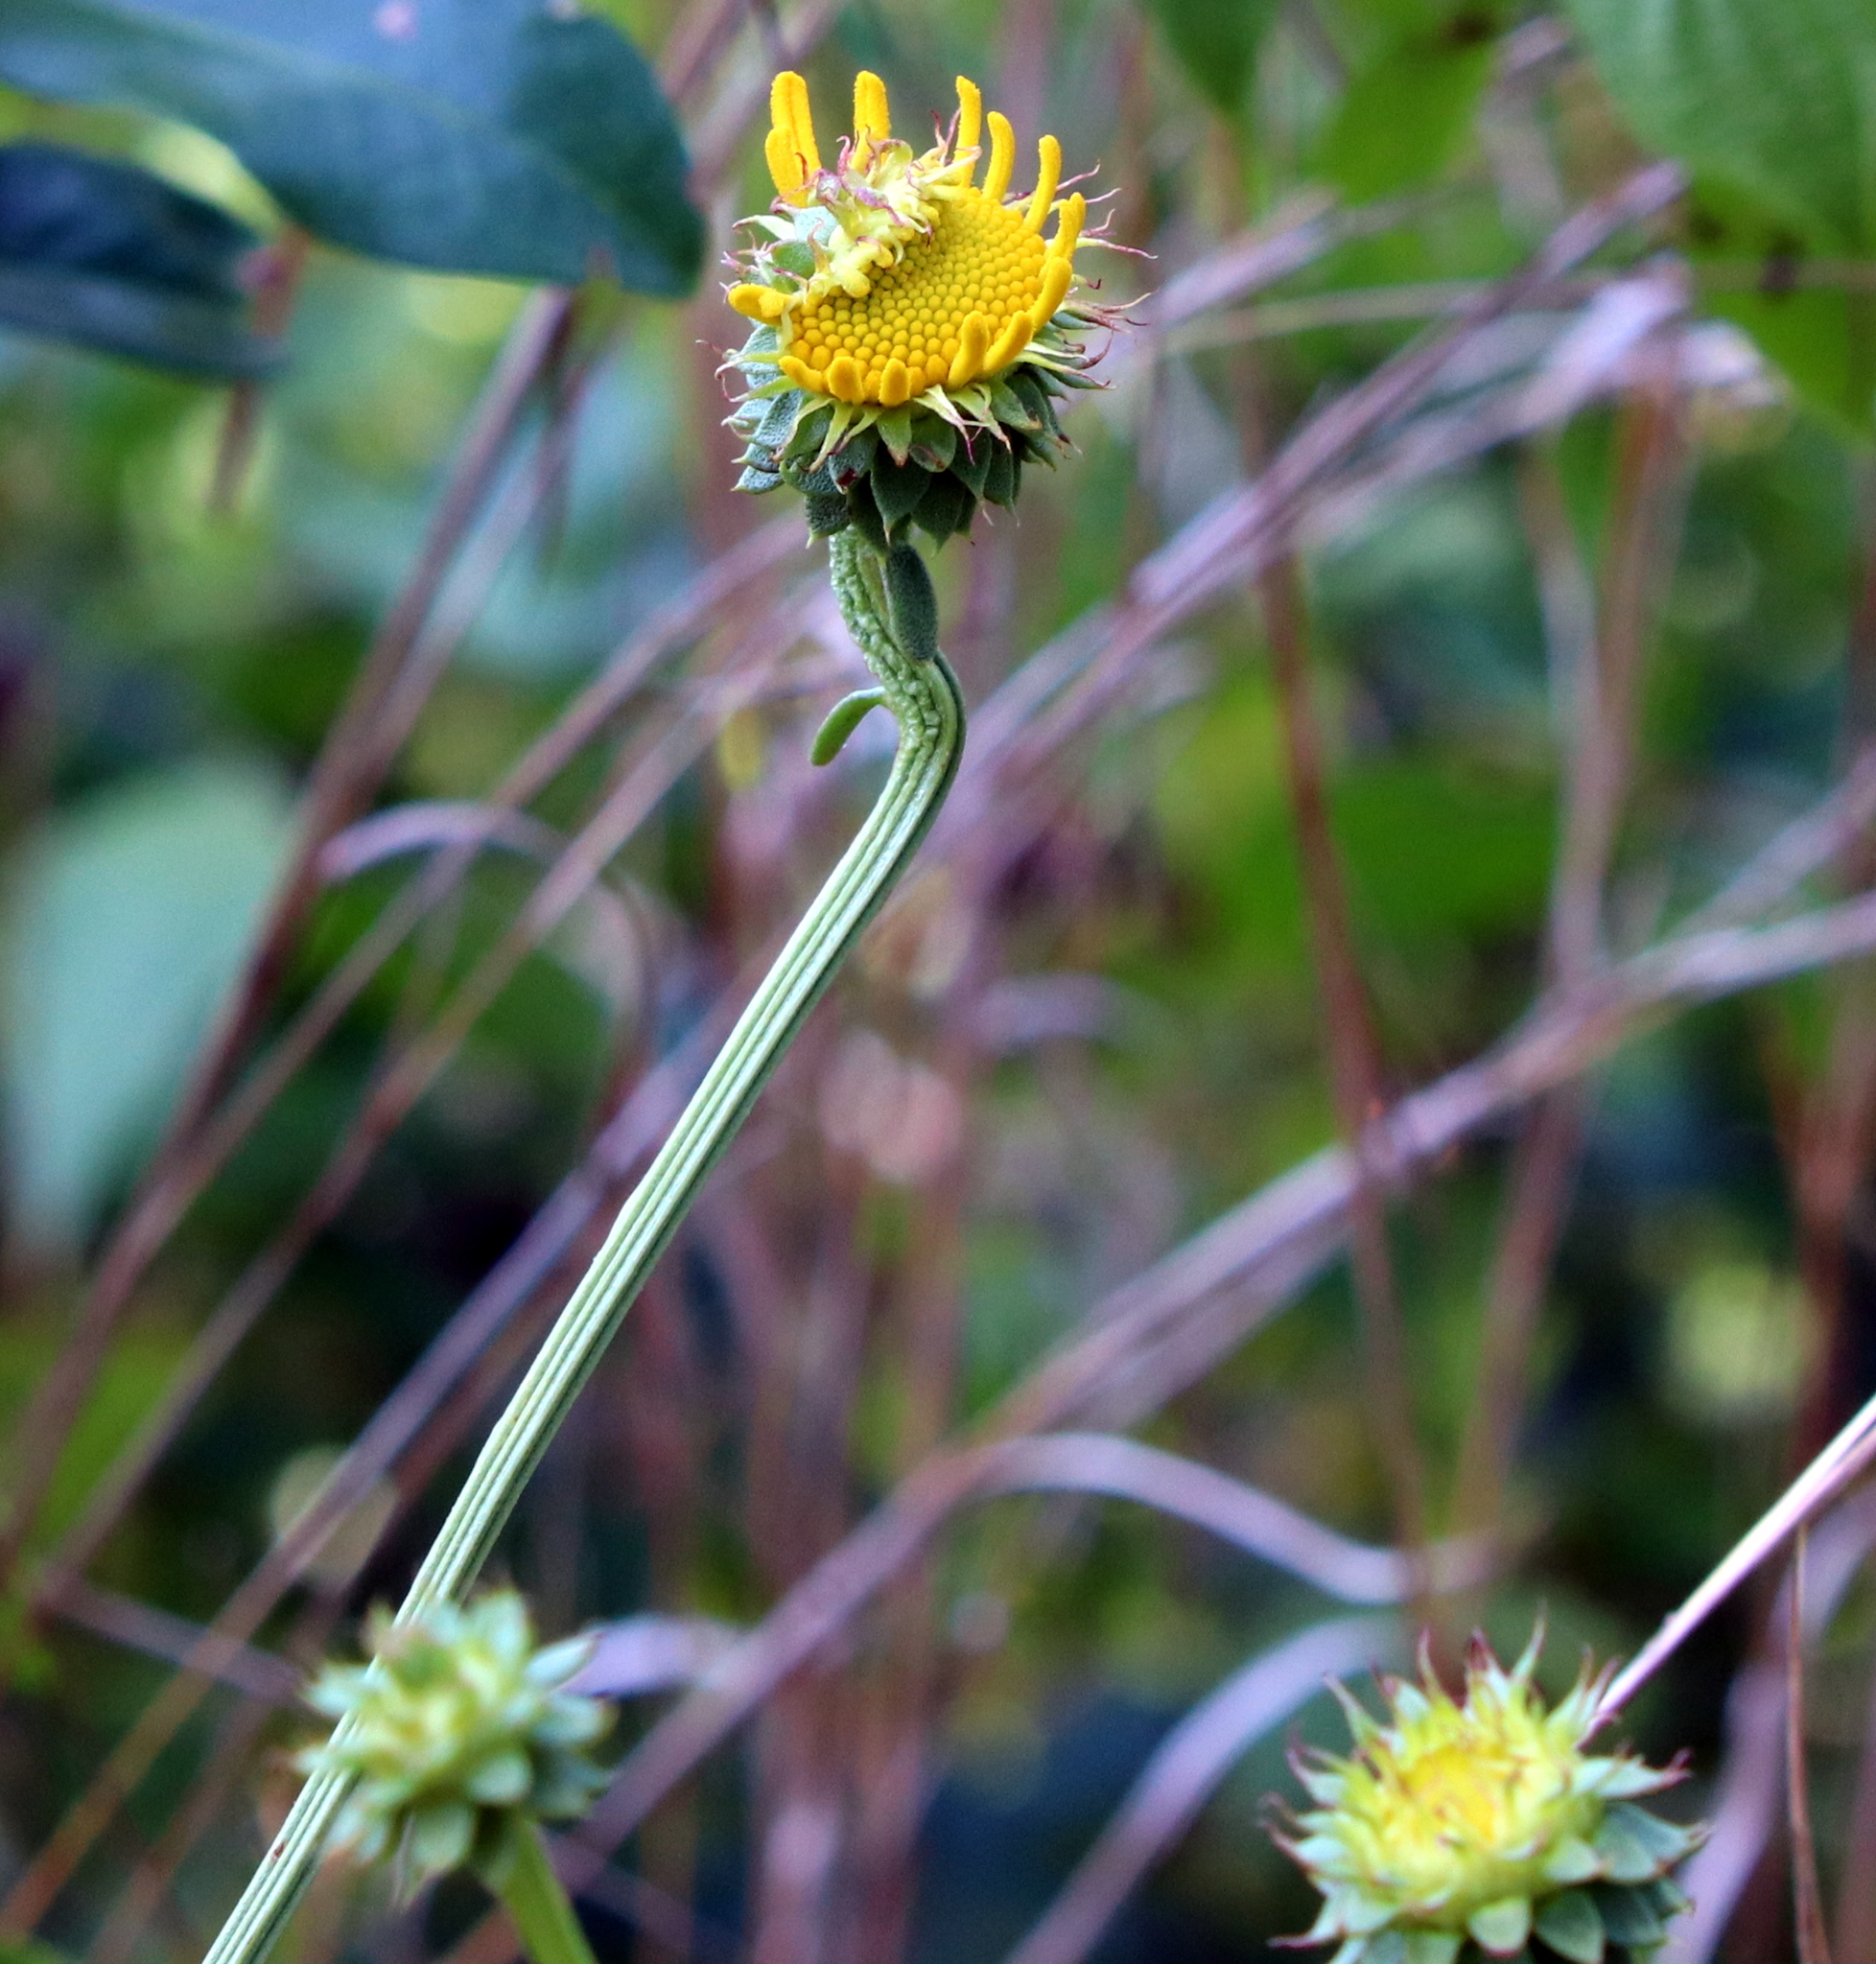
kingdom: Plantae
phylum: Tracheophyta
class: Magnoliopsida
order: Asterales
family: Asteraceae
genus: Balduina
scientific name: Balduina uniflora
